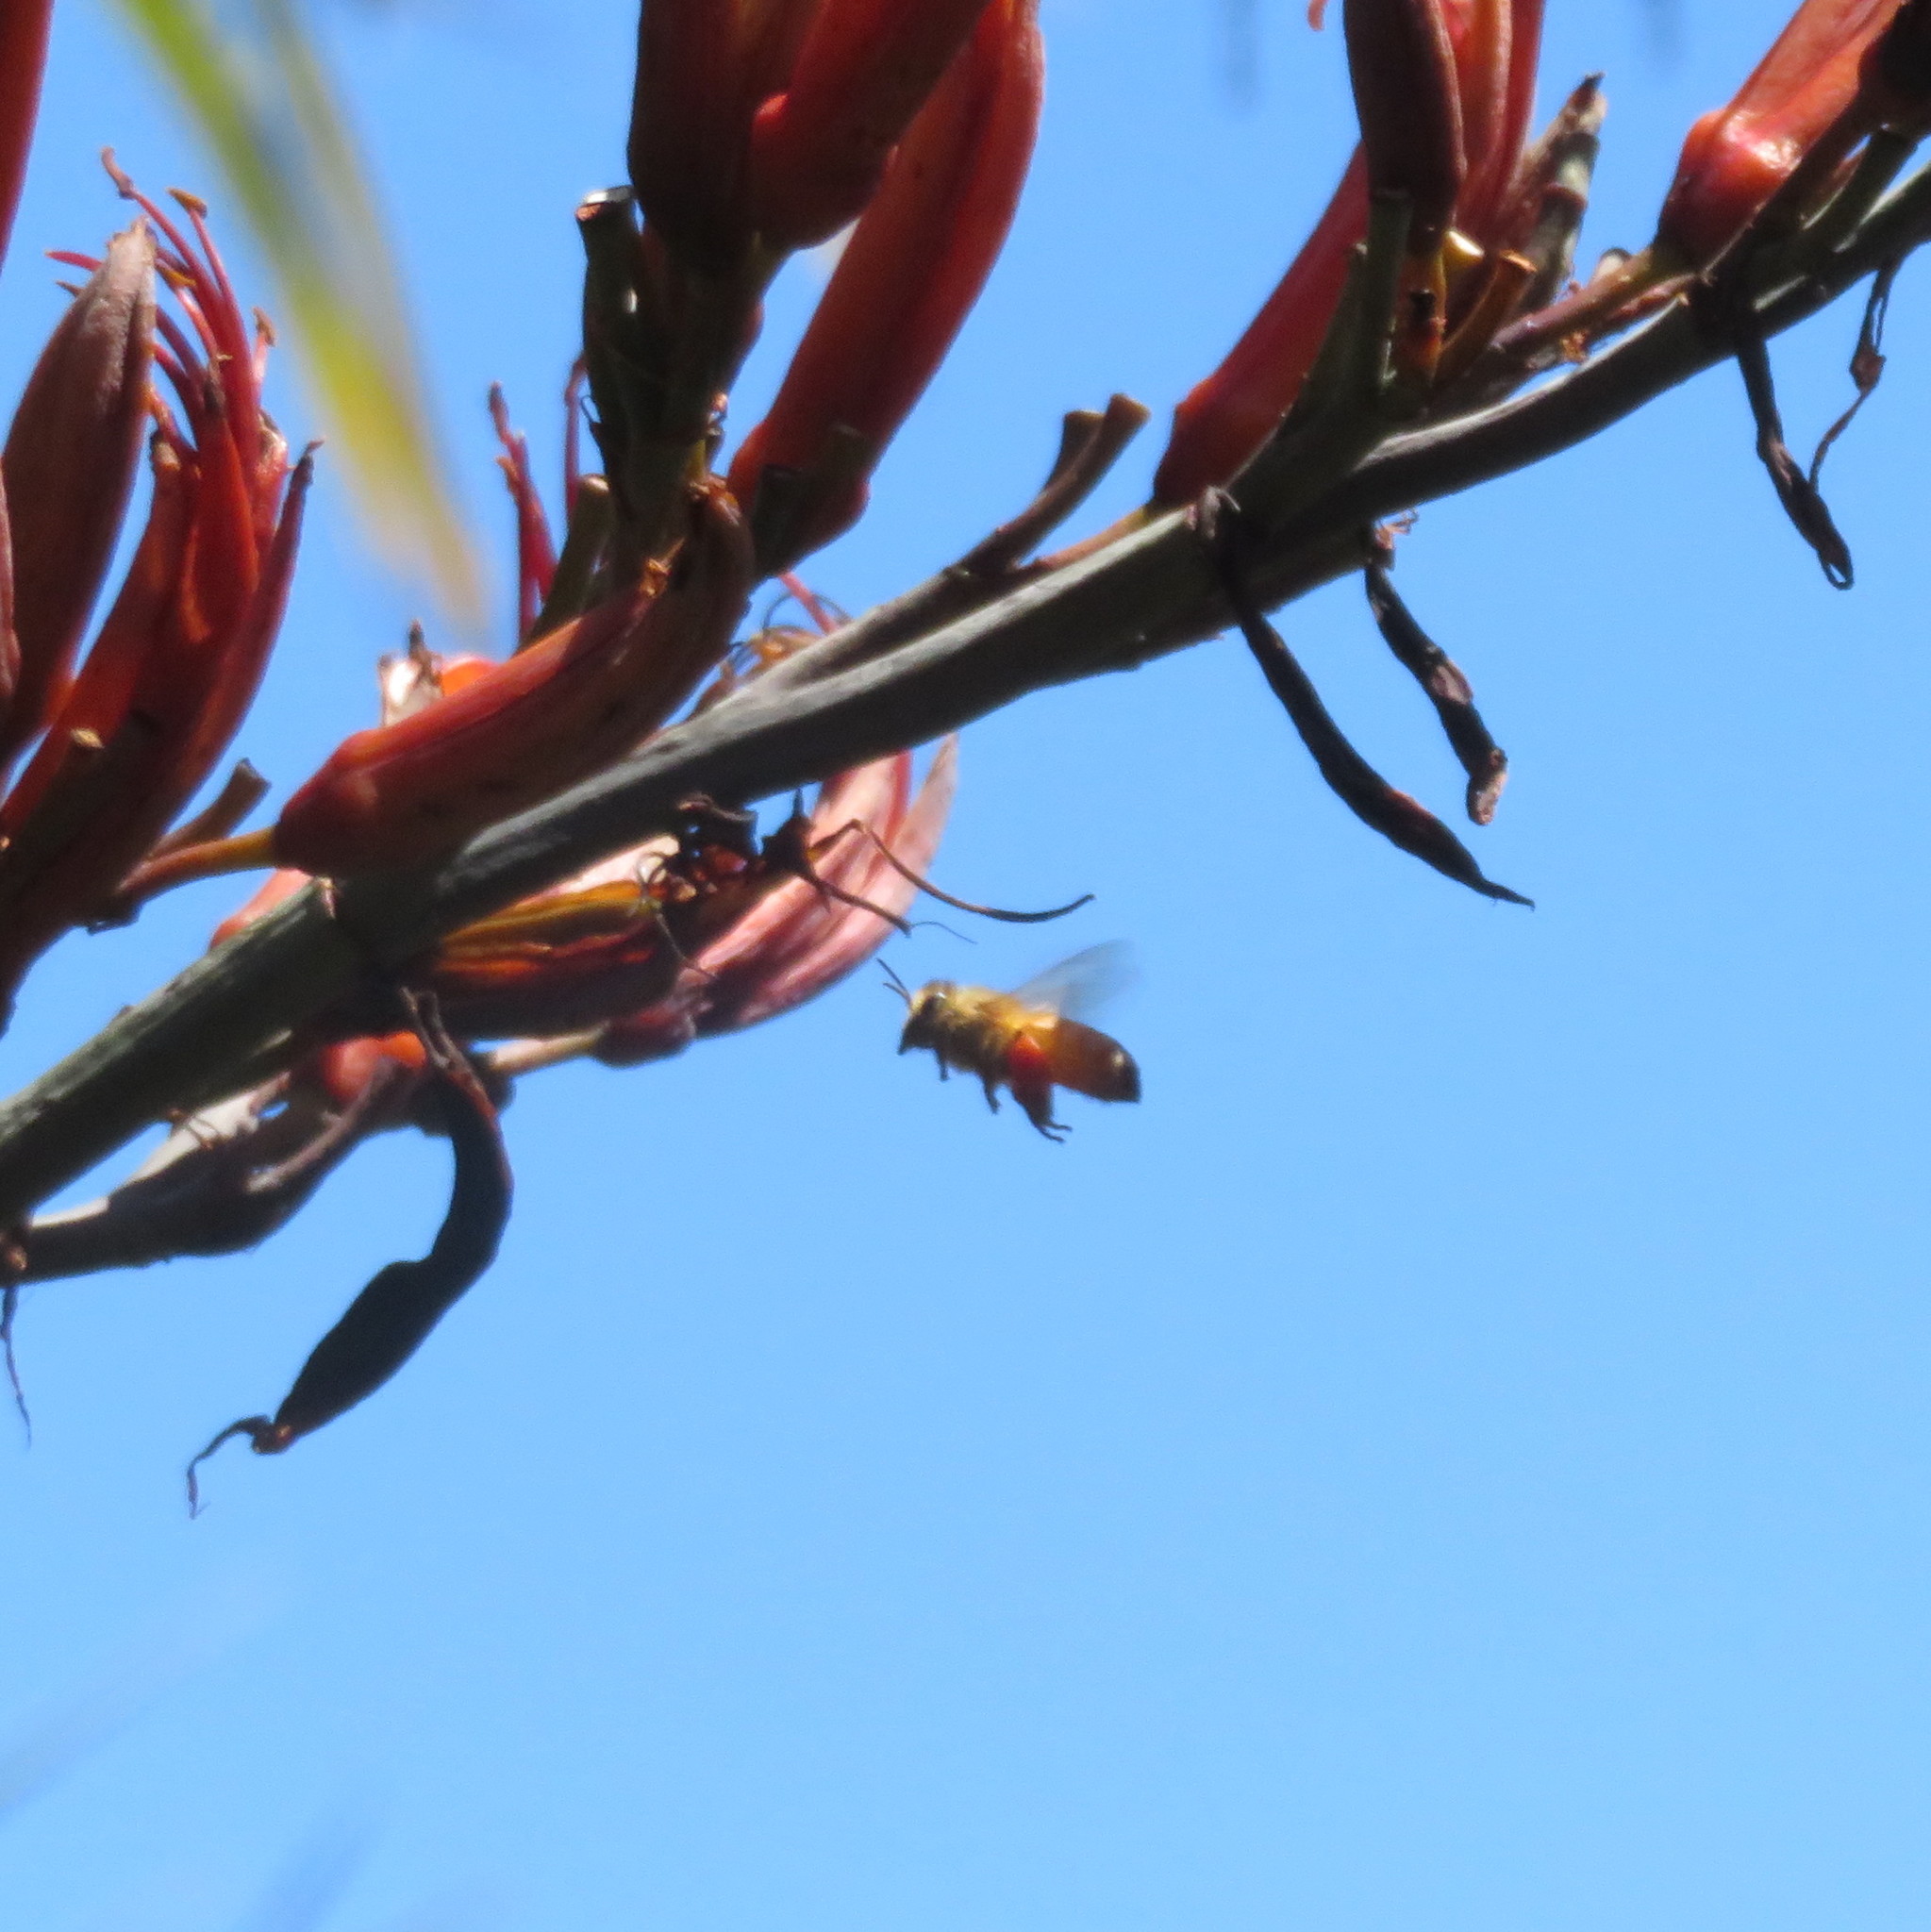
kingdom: Animalia
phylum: Arthropoda
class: Insecta
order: Hymenoptera
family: Apidae
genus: Apis
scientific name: Apis mellifera
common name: Honey bee
